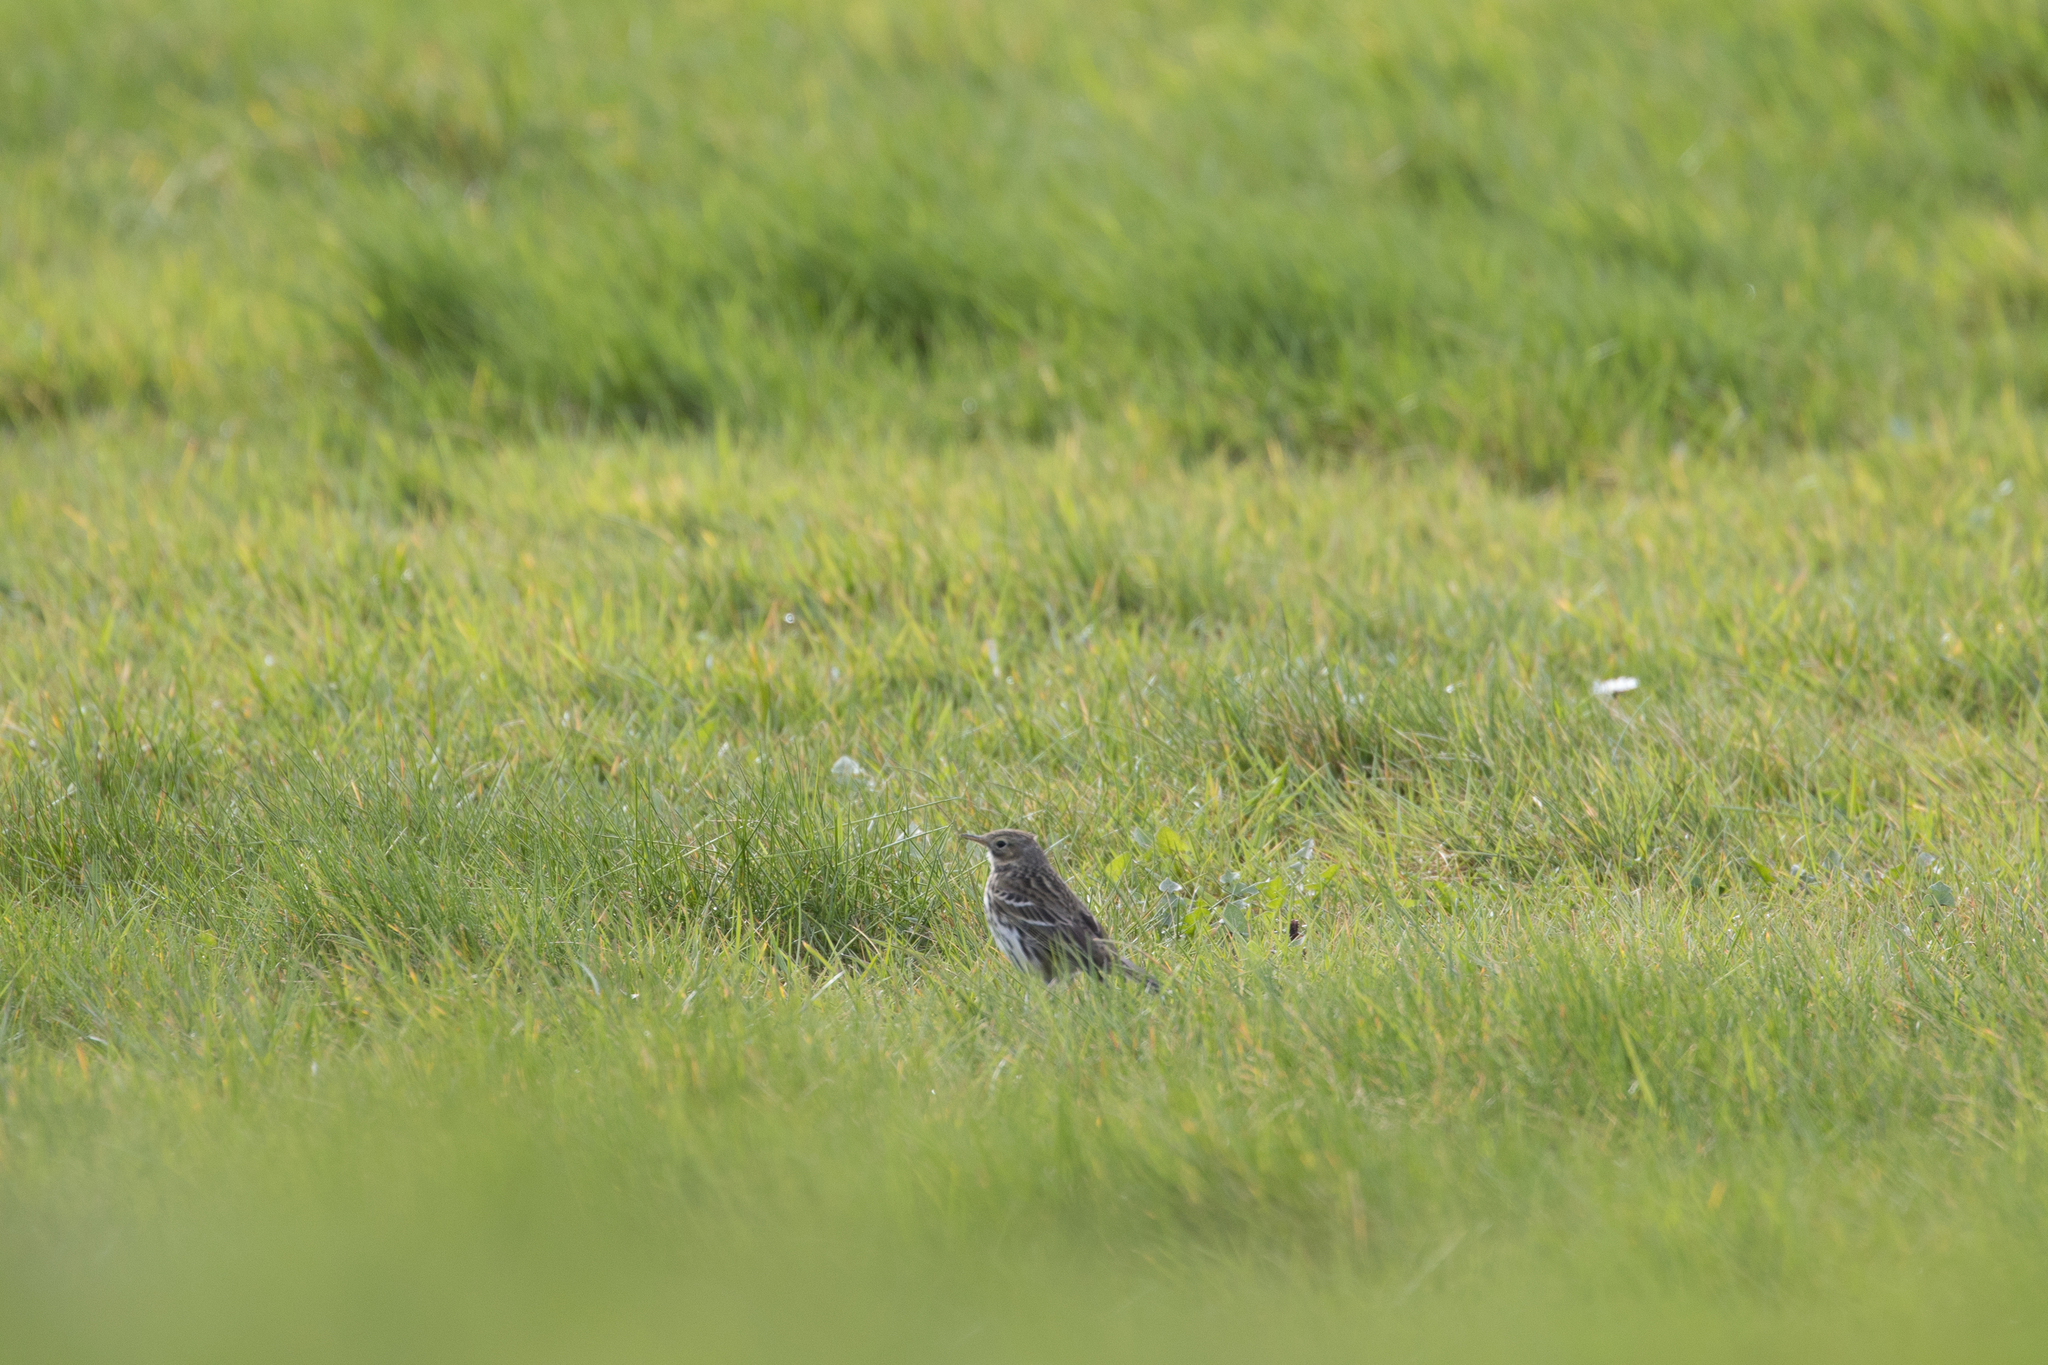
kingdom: Animalia
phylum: Chordata
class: Aves
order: Passeriformes
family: Motacillidae
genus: Anthus
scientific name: Anthus pratensis
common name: Meadow pipit
